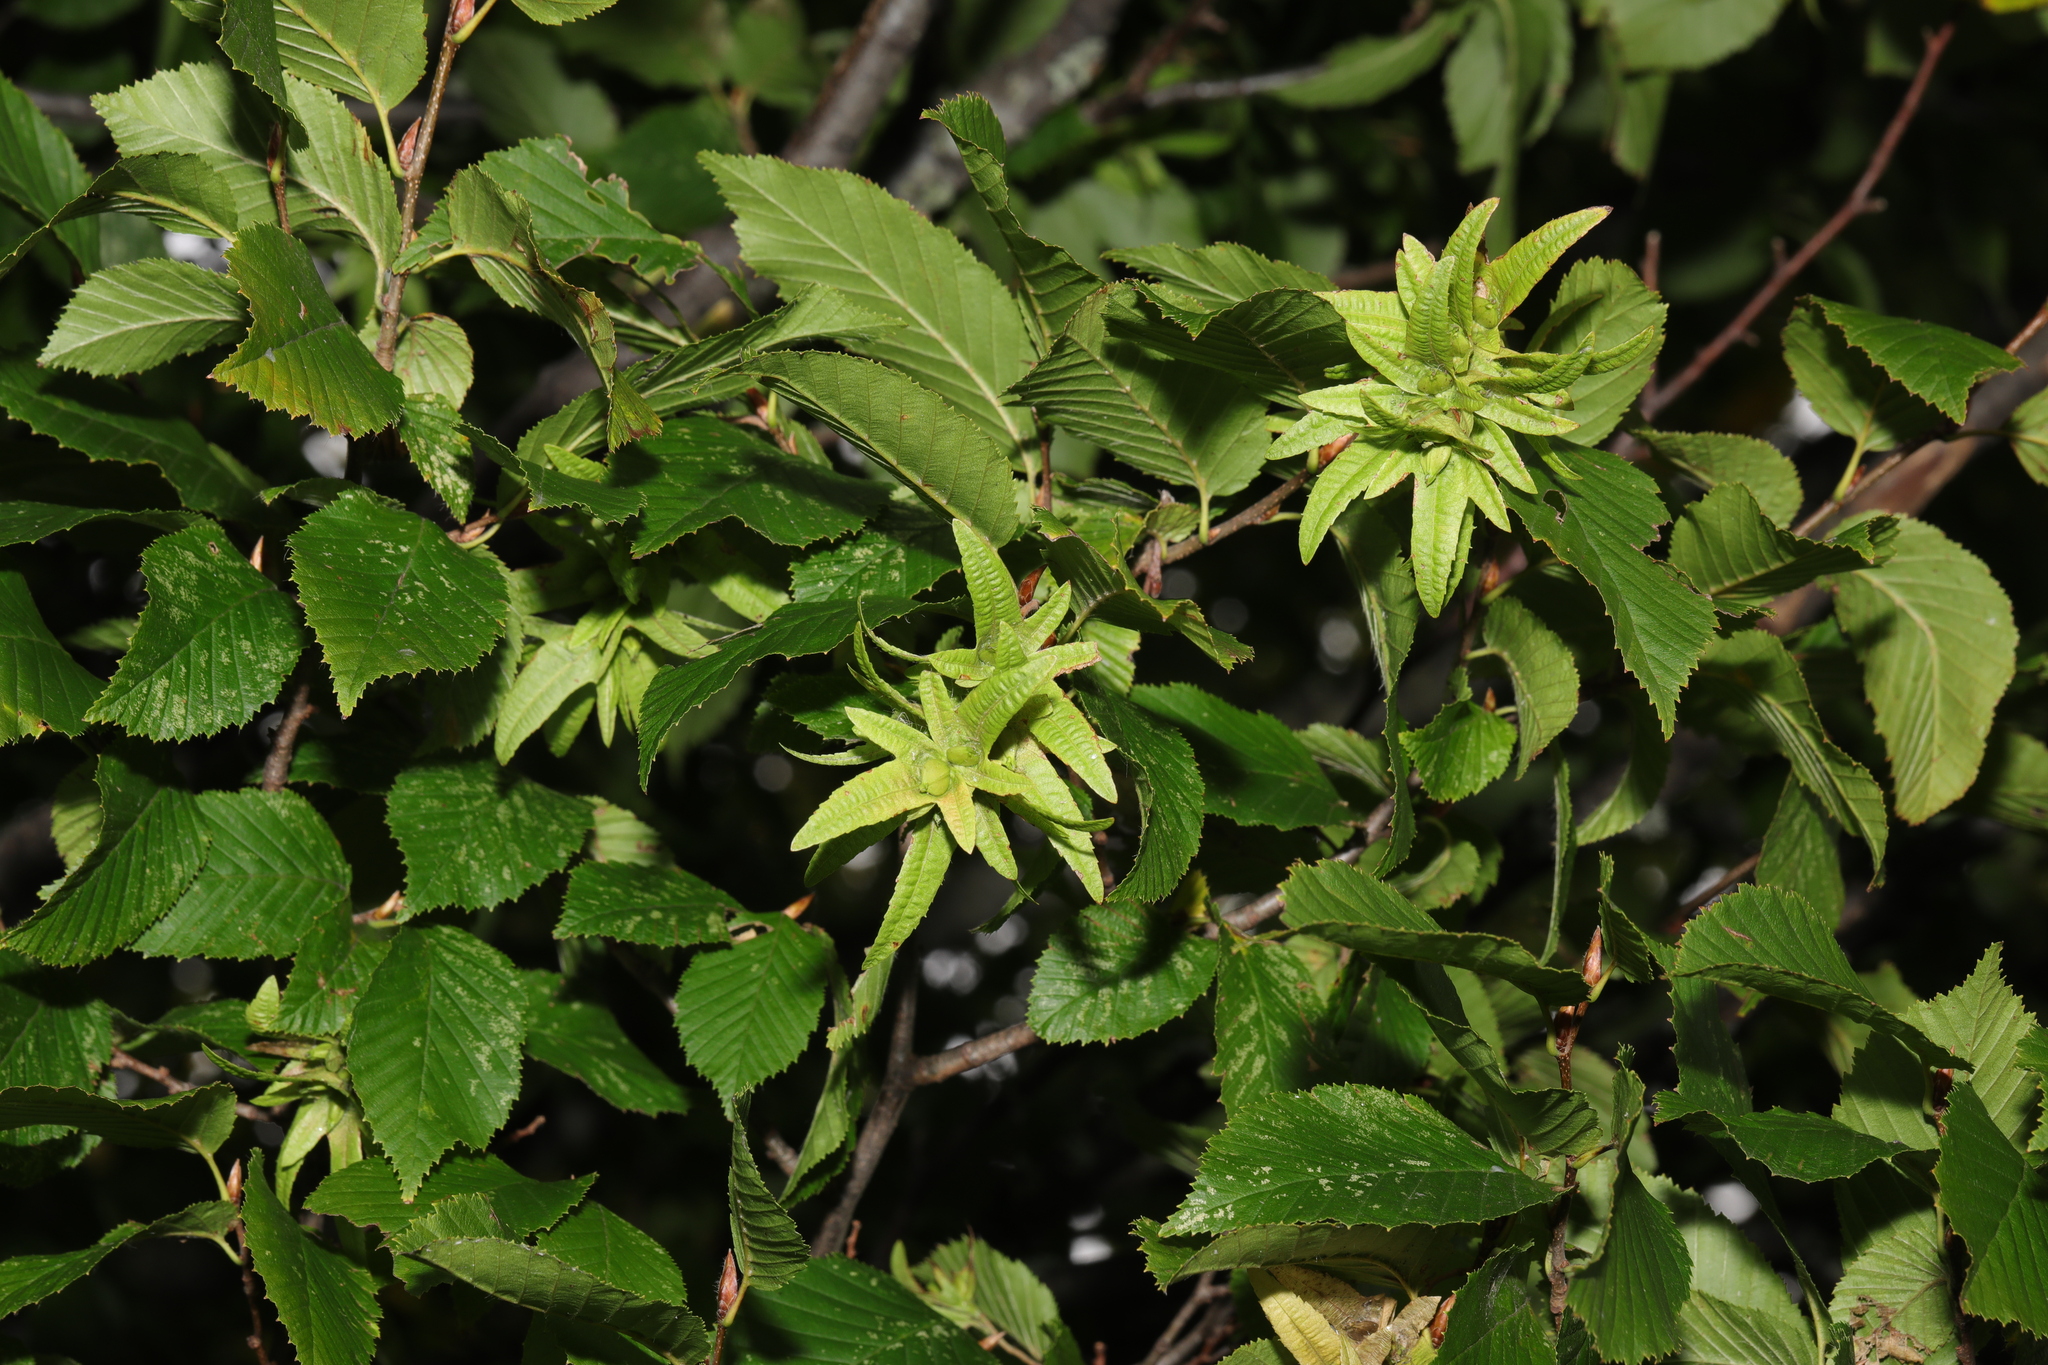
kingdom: Plantae
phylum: Tracheophyta
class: Magnoliopsida
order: Fagales
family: Betulaceae
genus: Carpinus
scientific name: Carpinus betulus
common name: Hornbeam
